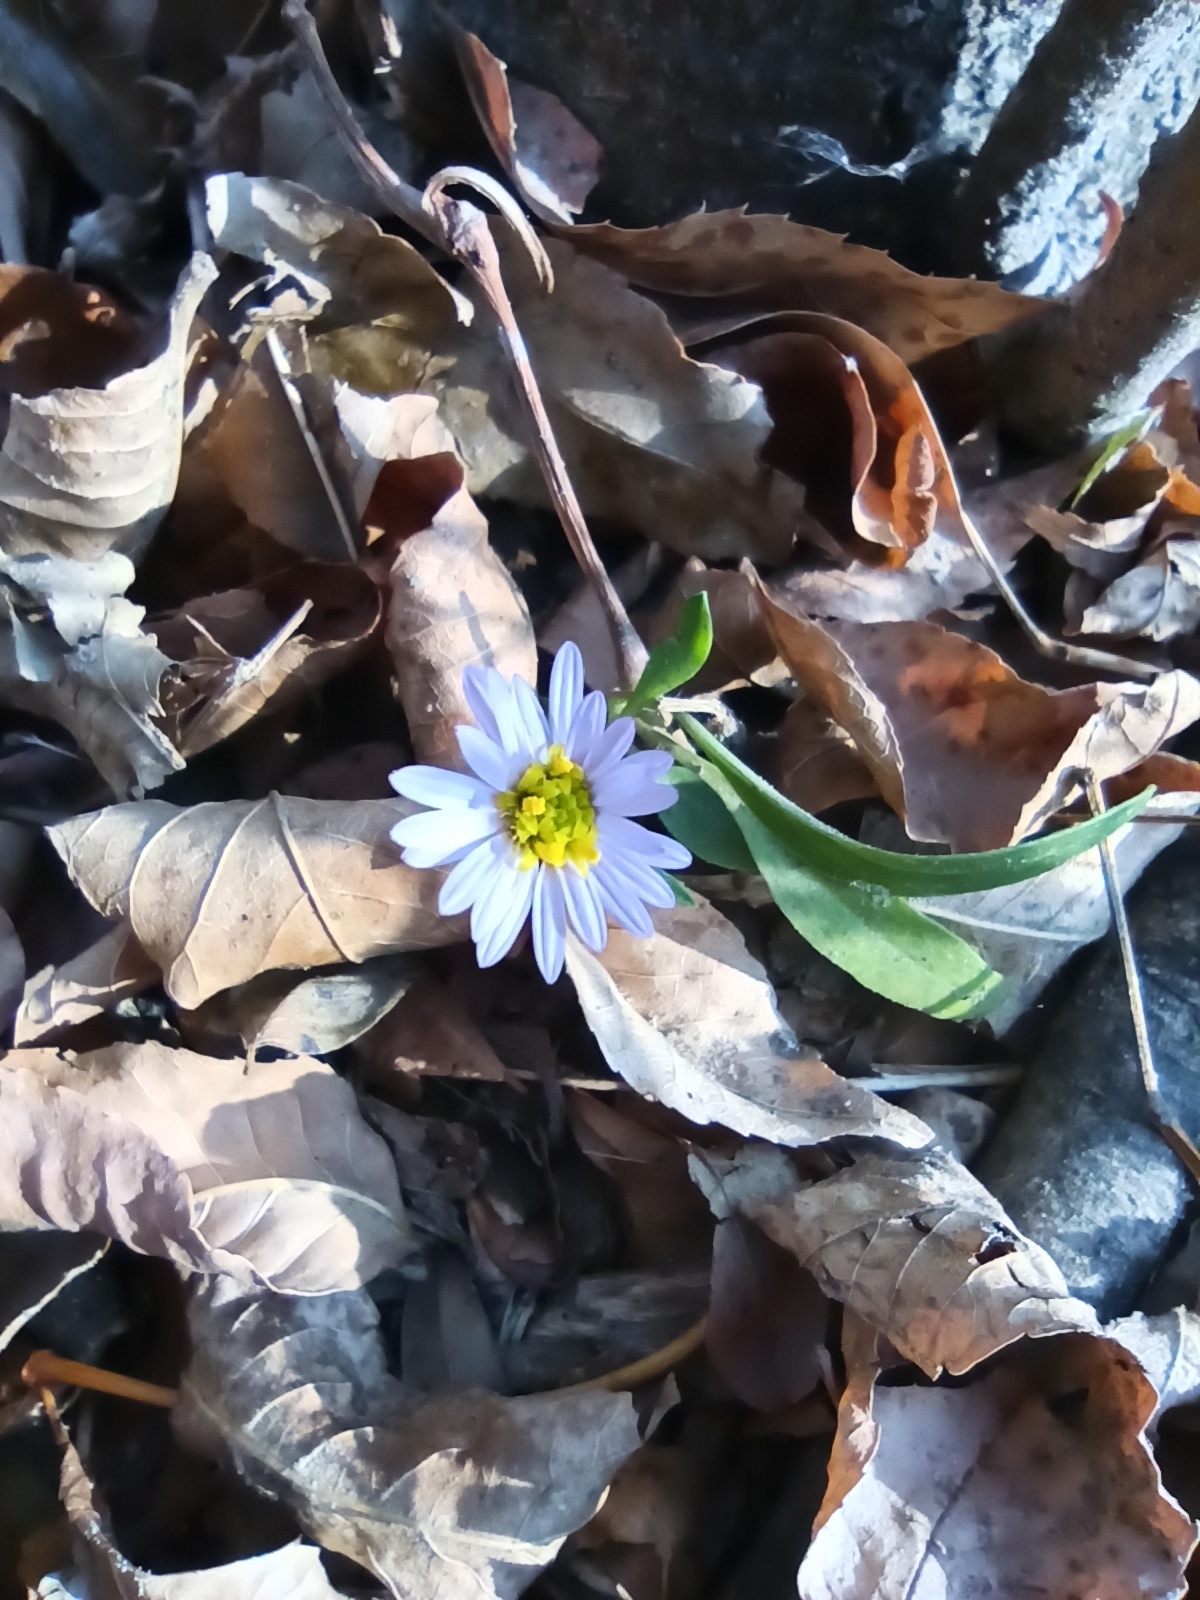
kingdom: Plantae
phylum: Tracheophyta
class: Magnoliopsida
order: Asterales
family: Asteraceae
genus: Tripolium
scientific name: Tripolium pannonicum
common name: Sea aster
